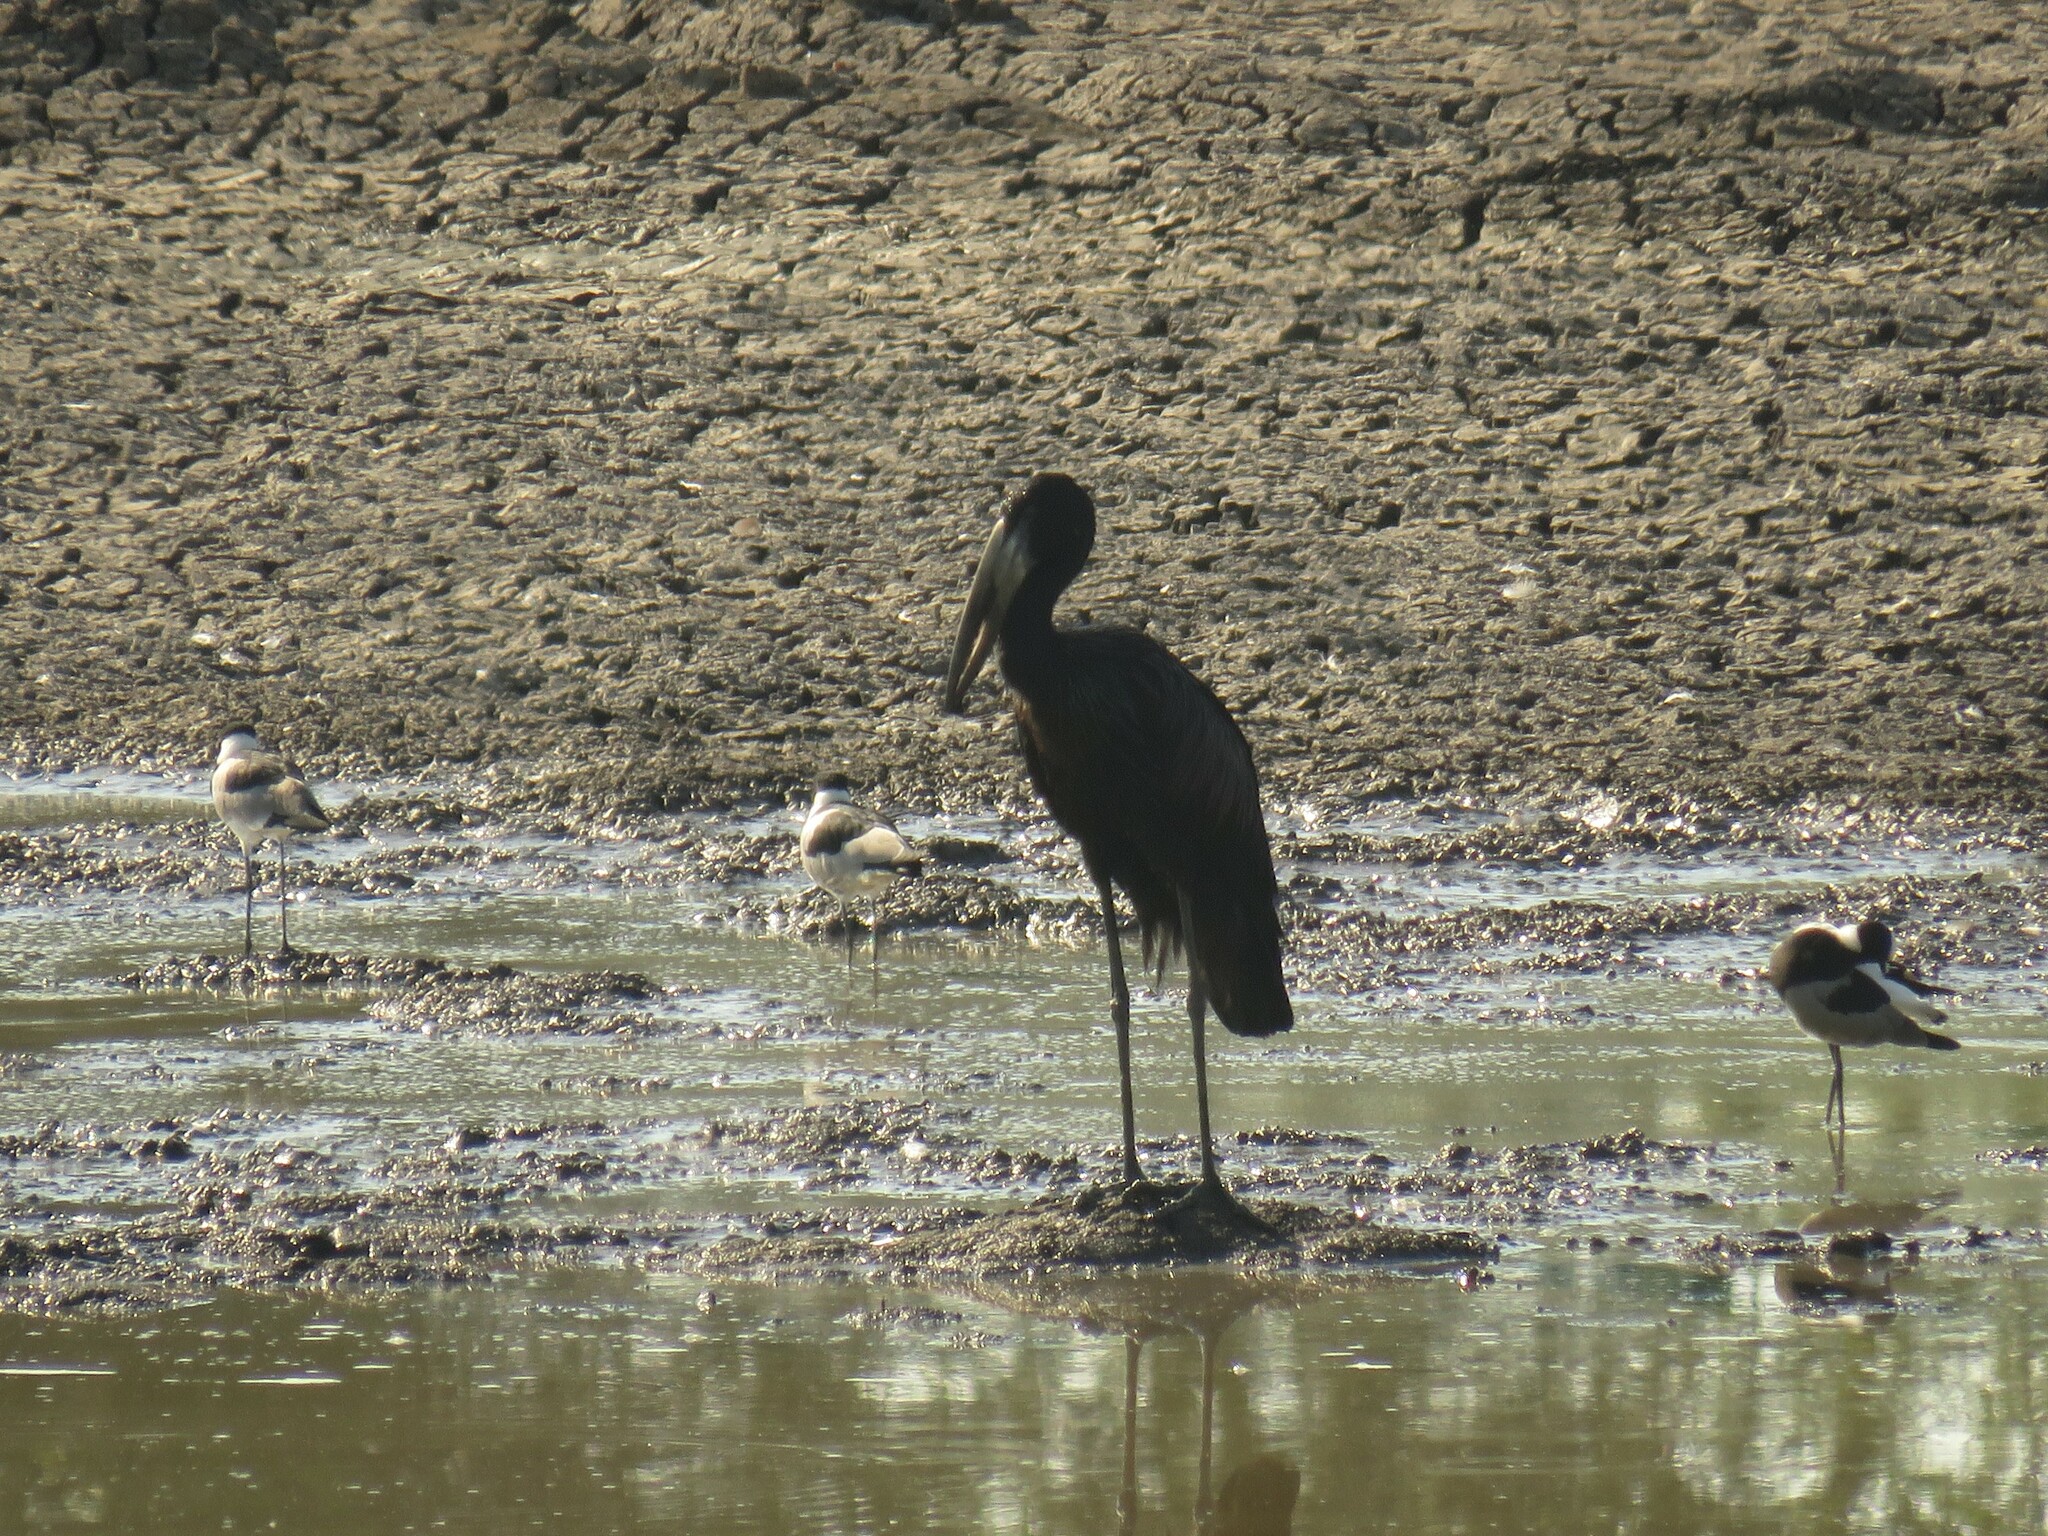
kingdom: Animalia
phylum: Chordata
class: Aves
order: Ciconiiformes
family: Ciconiidae
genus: Anastomus
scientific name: Anastomus lamelligerus
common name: African openbill
